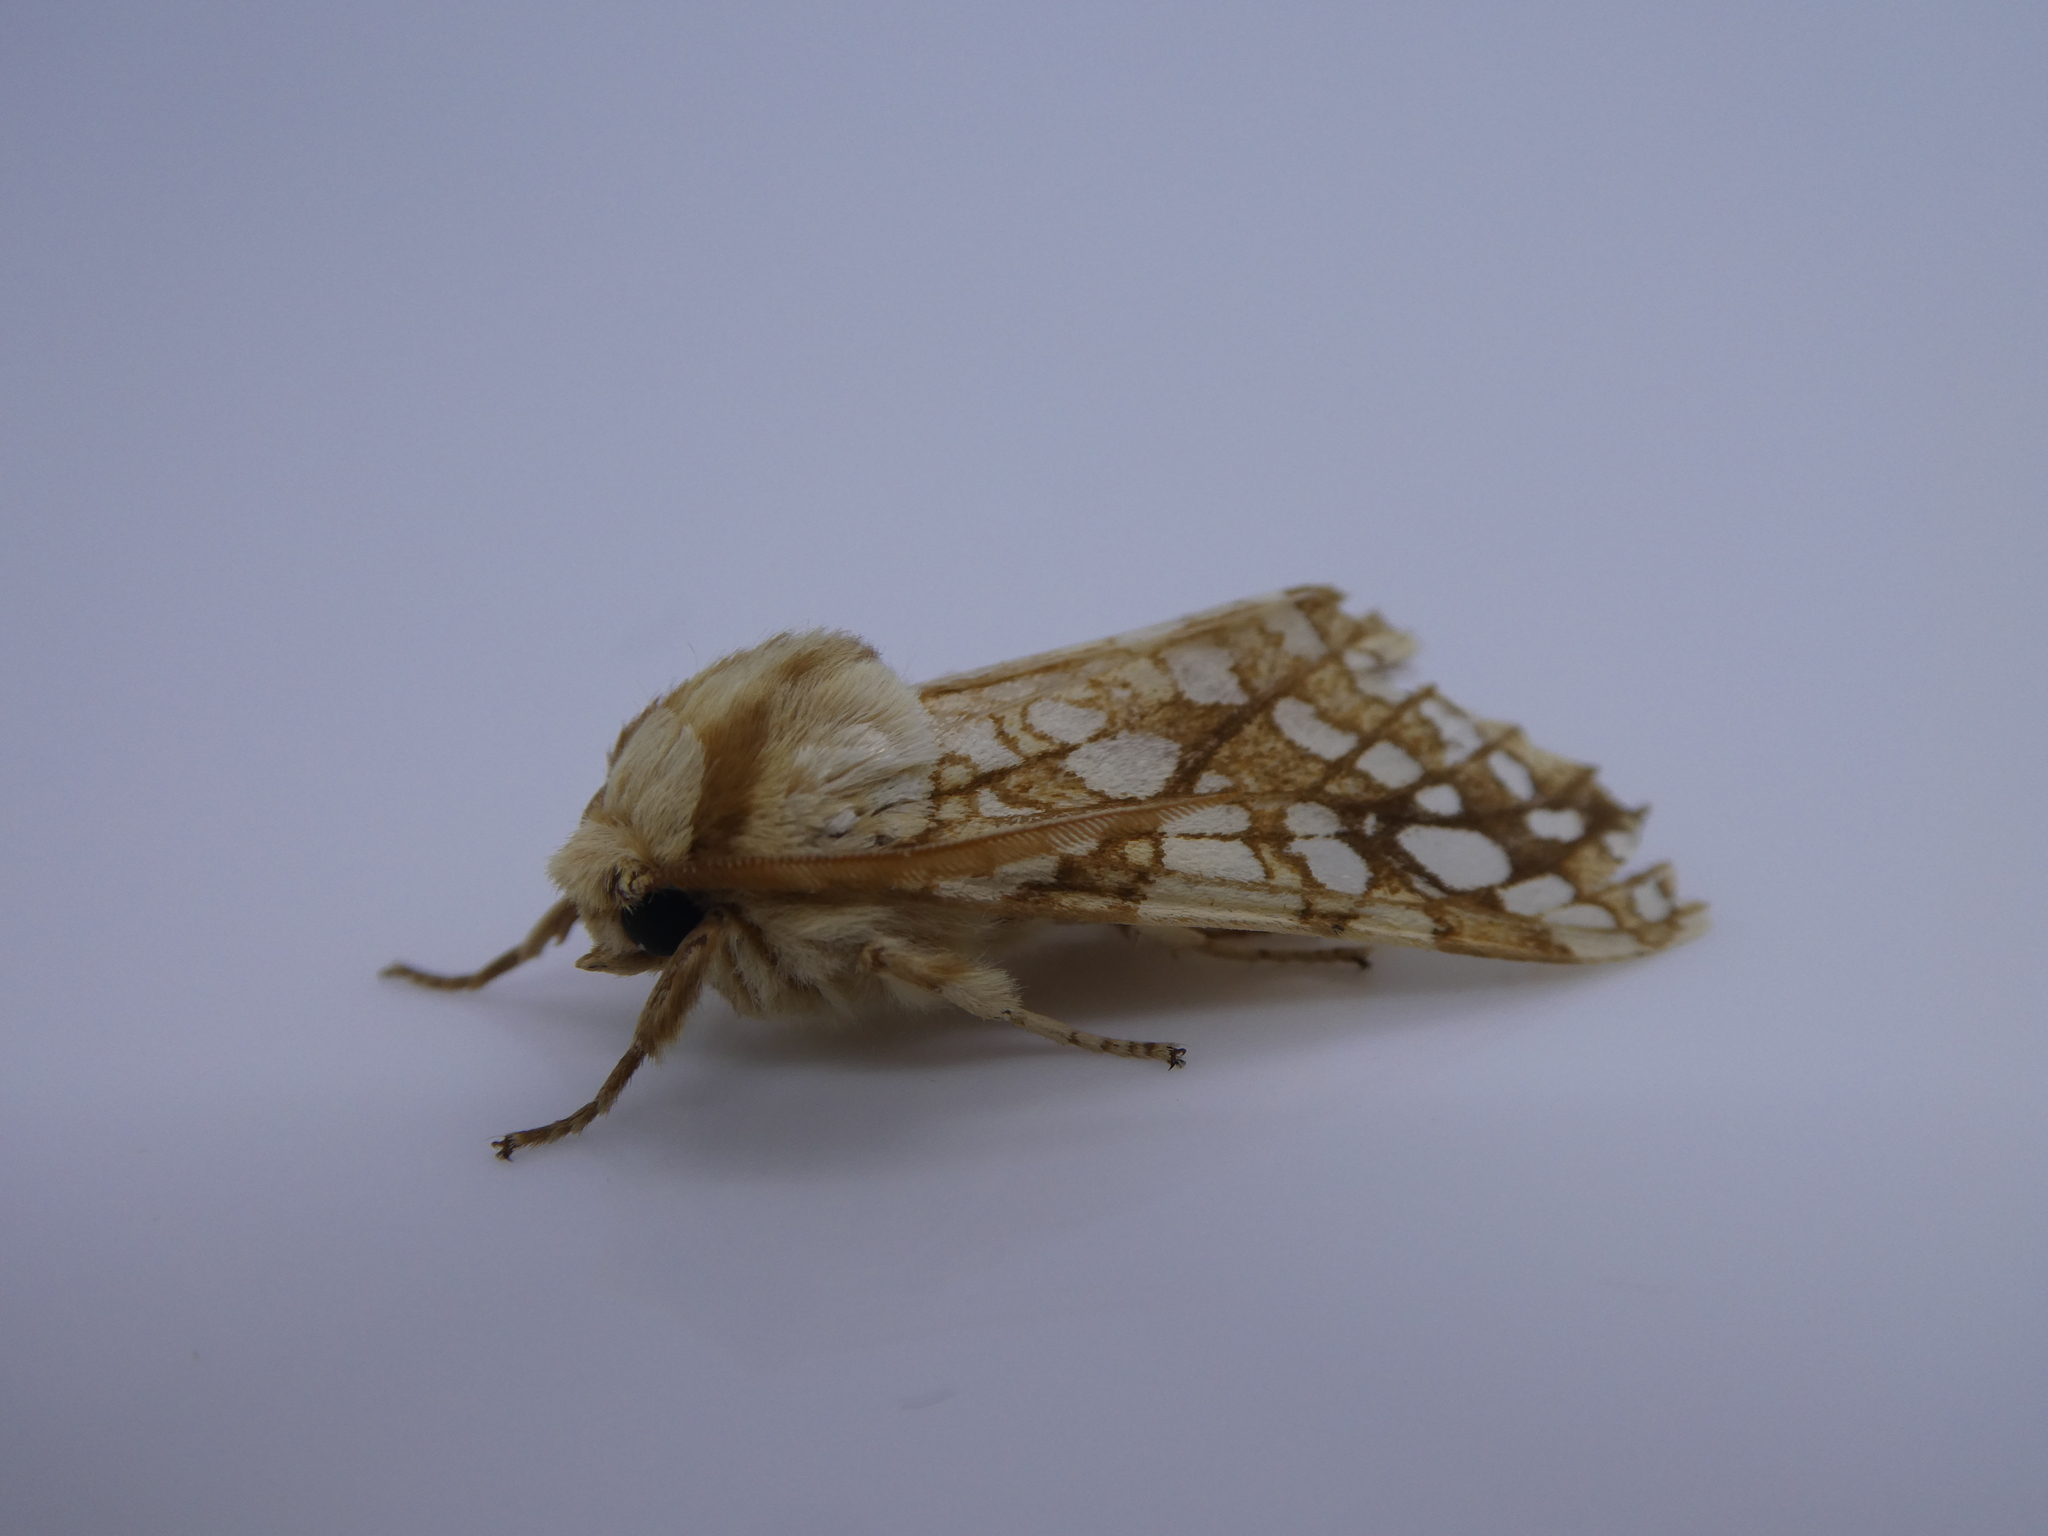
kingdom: Animalia
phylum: Arthropoda
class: Insecta
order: Lepidoptera
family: Erebidae
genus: Lophocampa
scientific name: Lophocampa caryae
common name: Hickory tussock moth
